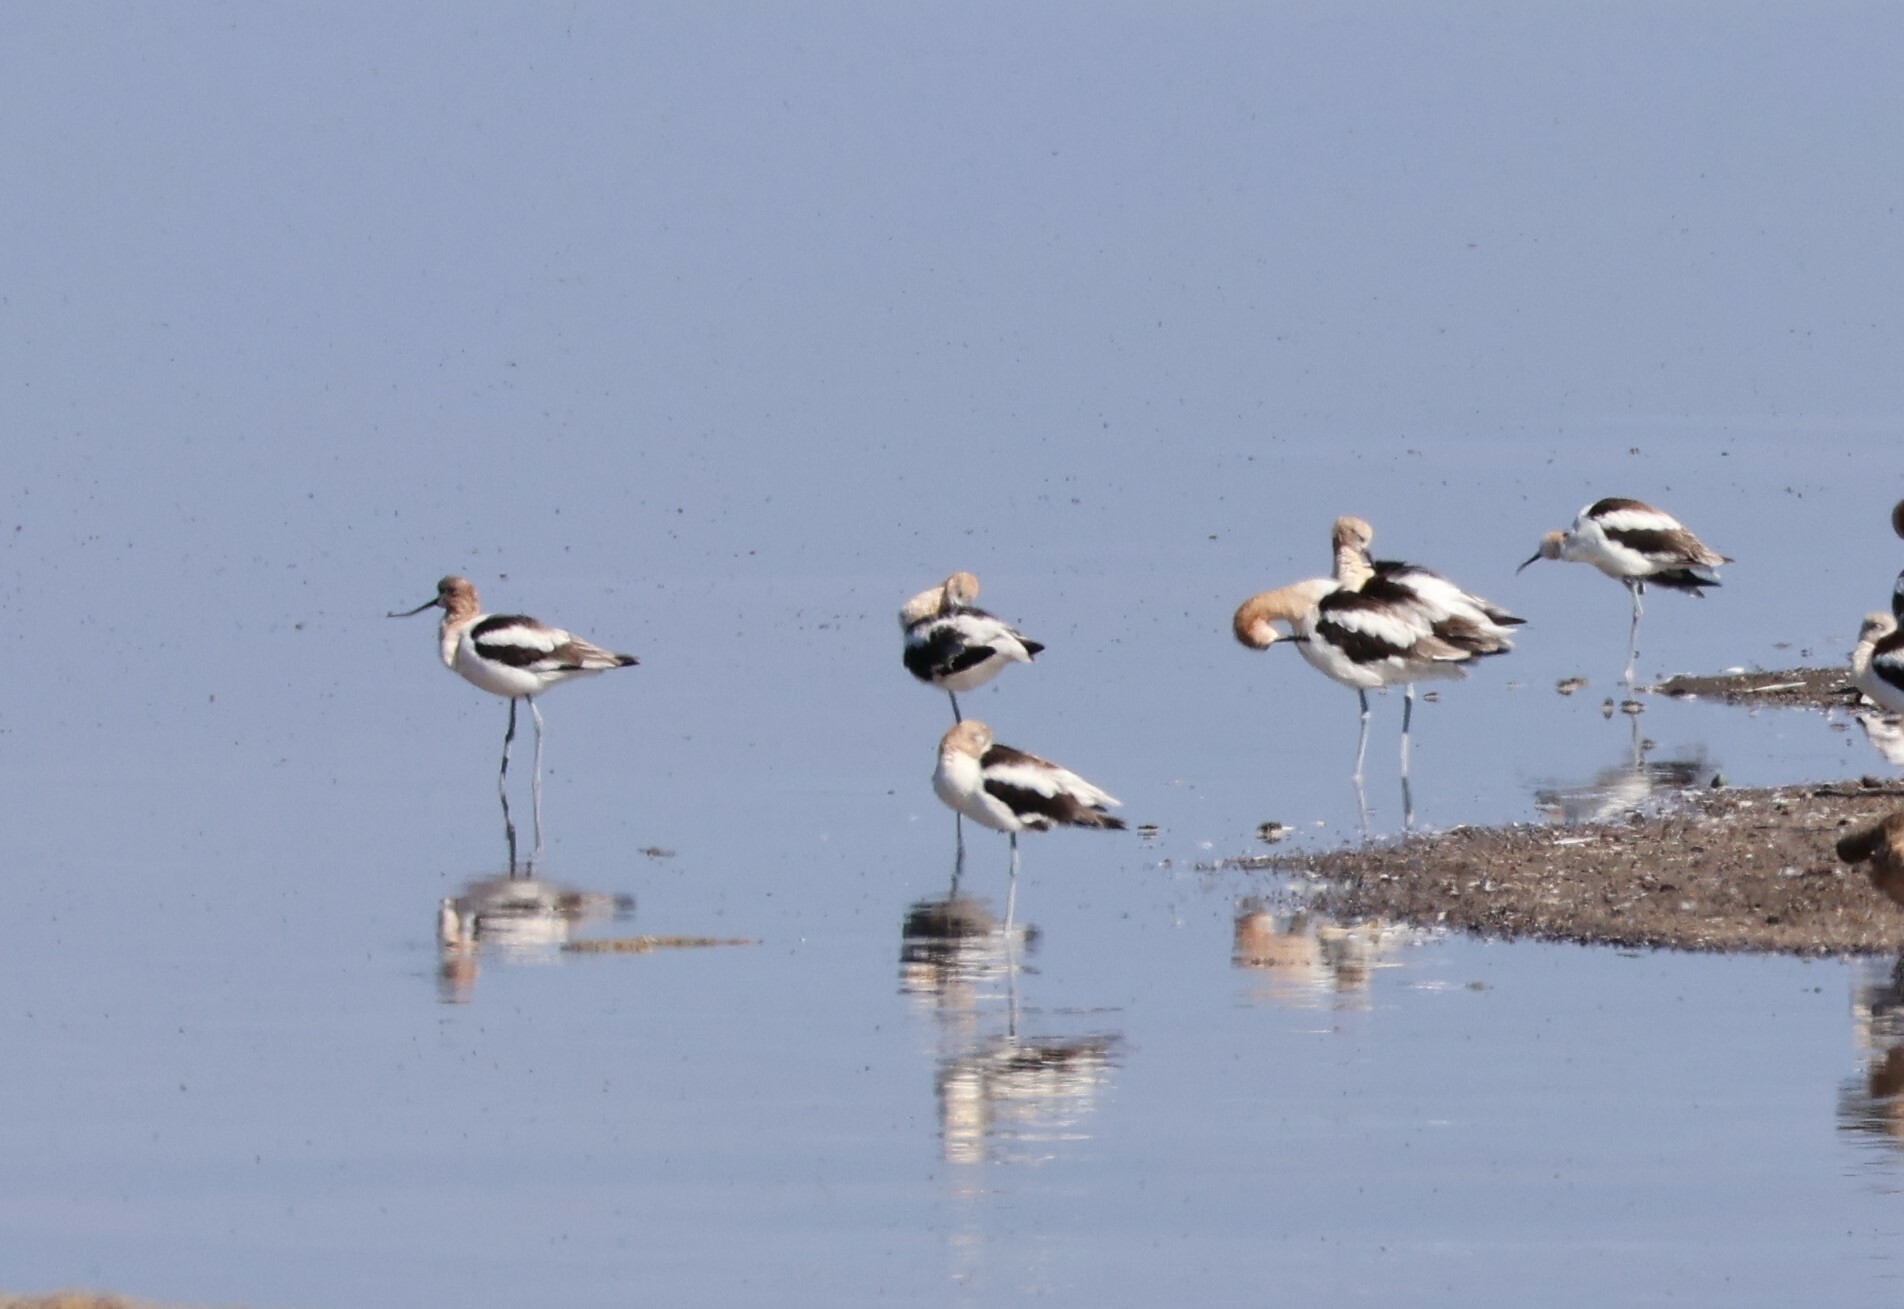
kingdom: Animalia
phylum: Chordata
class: Aves
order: Charadriiformes
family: Recurvirostridae
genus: Recurvirostra
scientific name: Recurvirostra americana
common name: American avocet
